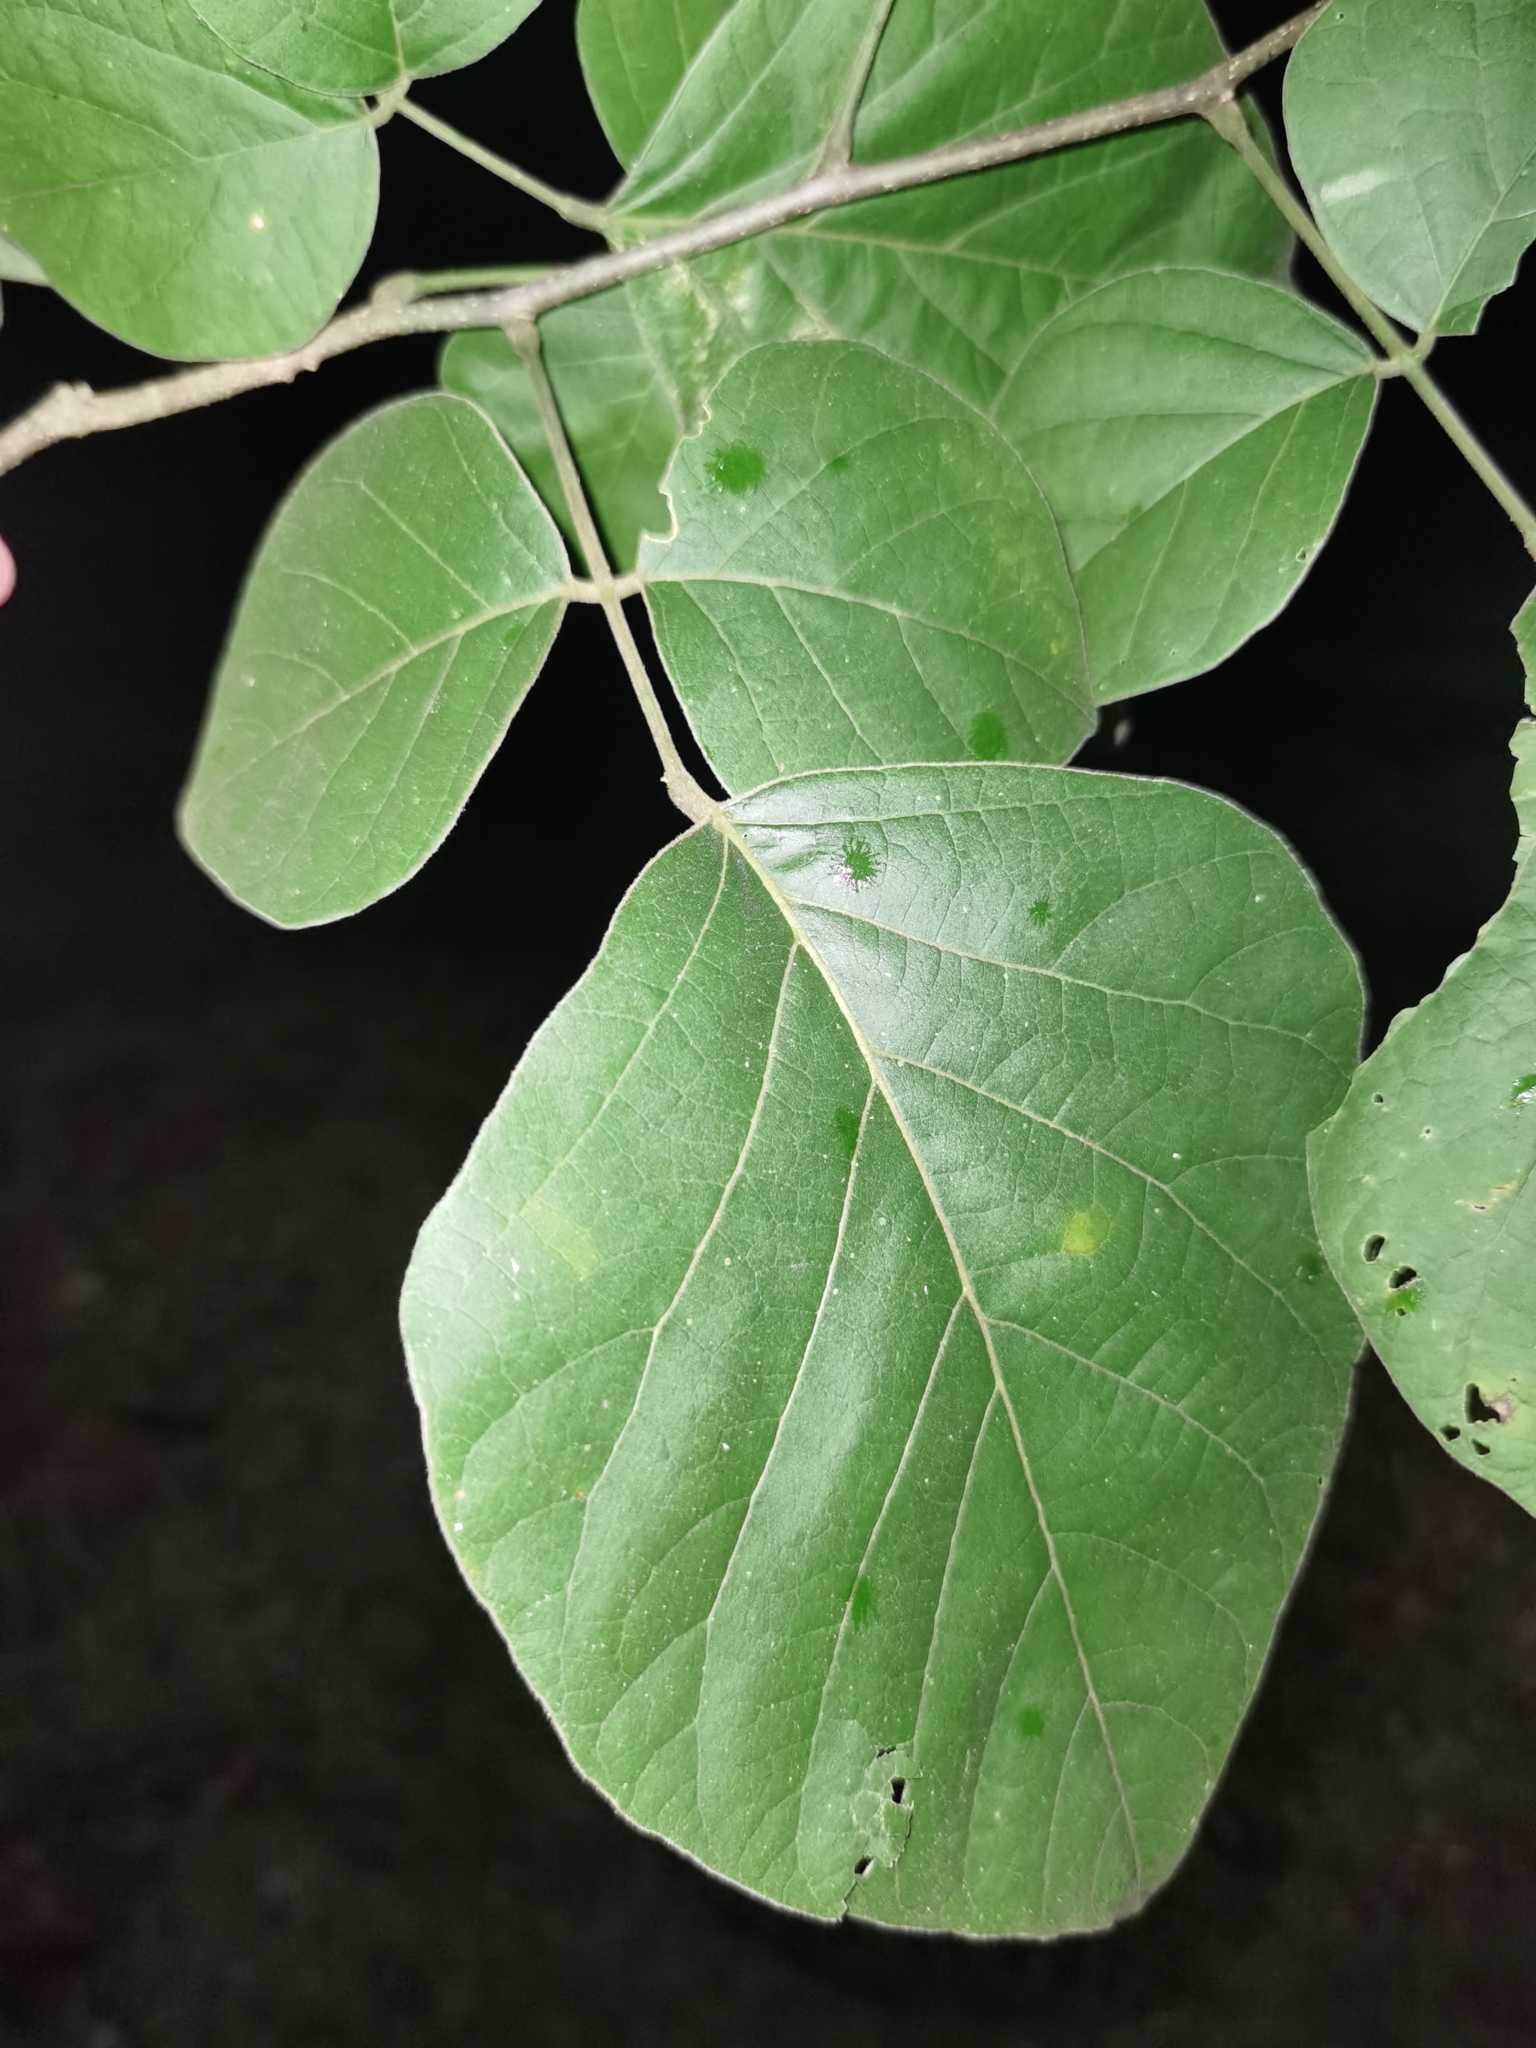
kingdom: Plantae
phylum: Tracheophyta
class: Magnoliopsida
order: Fabales
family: Fabaceae
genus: Lonchocarpus
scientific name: Lonchocarpus phaseolifolius
